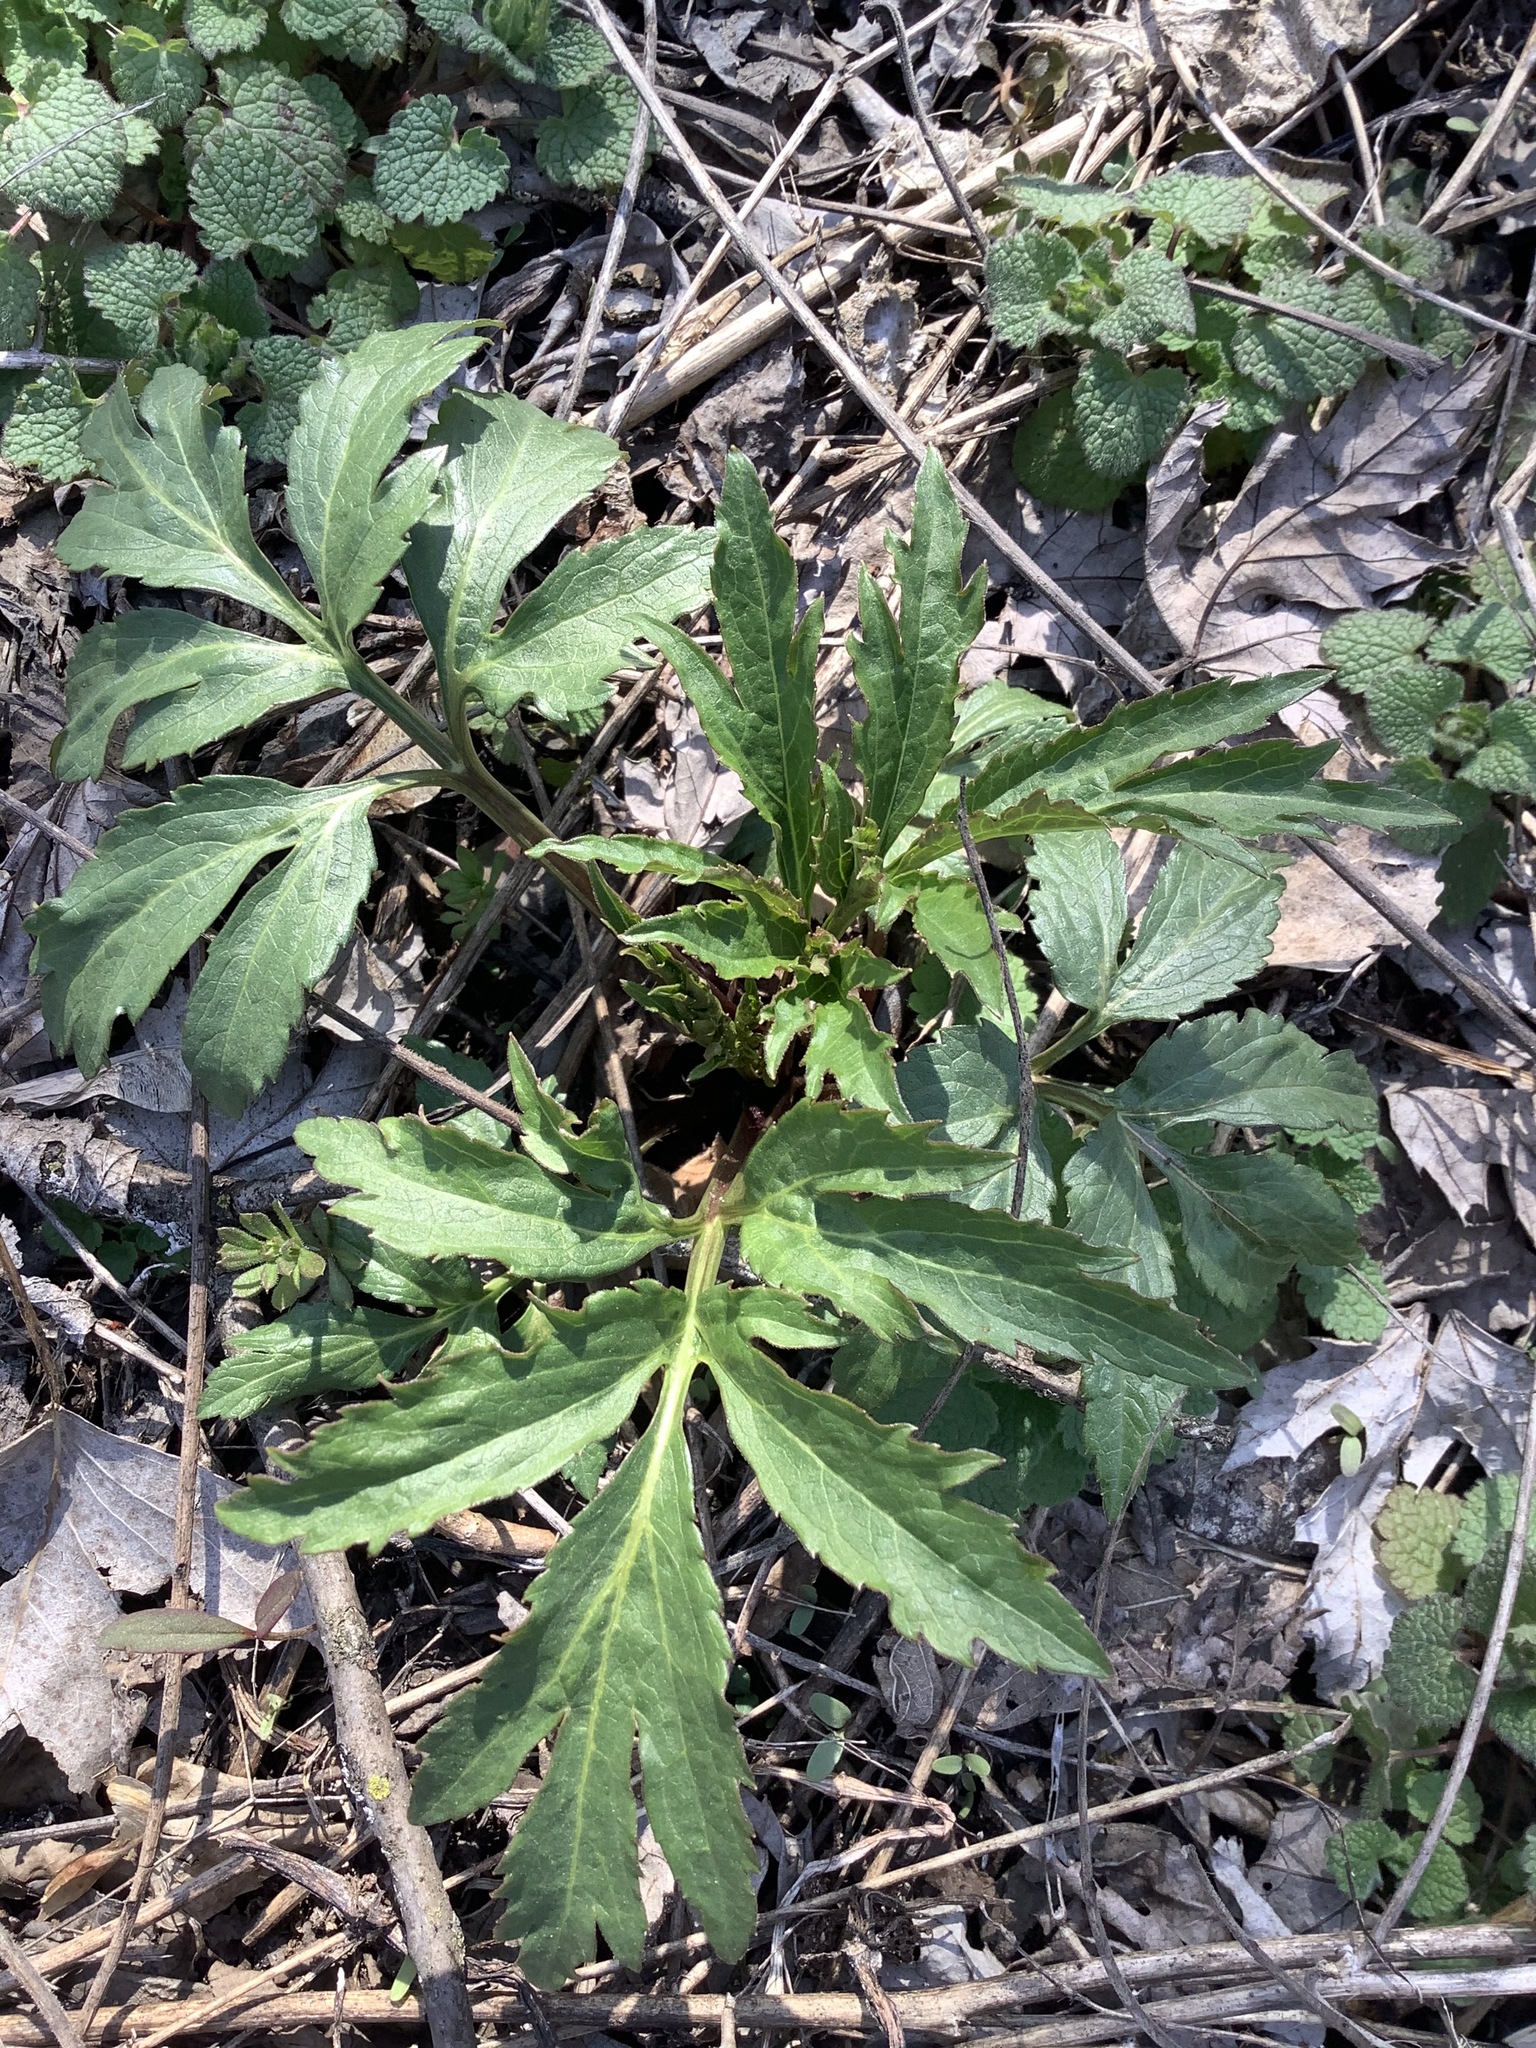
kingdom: Plantae
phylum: Tracheophyta
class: Magnoliopsida
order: Asterales
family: Asteraceae
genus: Rudbeckia
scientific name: Rudbeckia laciniata
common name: Coneflower
